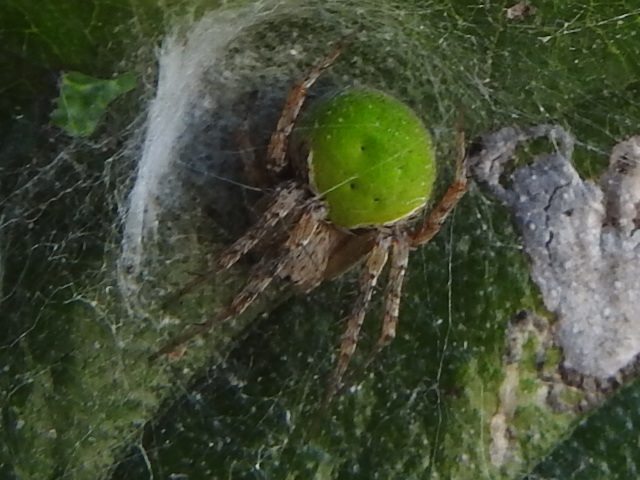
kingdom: Animalia
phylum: Arthropoda
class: Arachnida
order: Araneae
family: Araneidae
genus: Araneus
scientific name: Araneus detrimentosus
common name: Orb weavers
